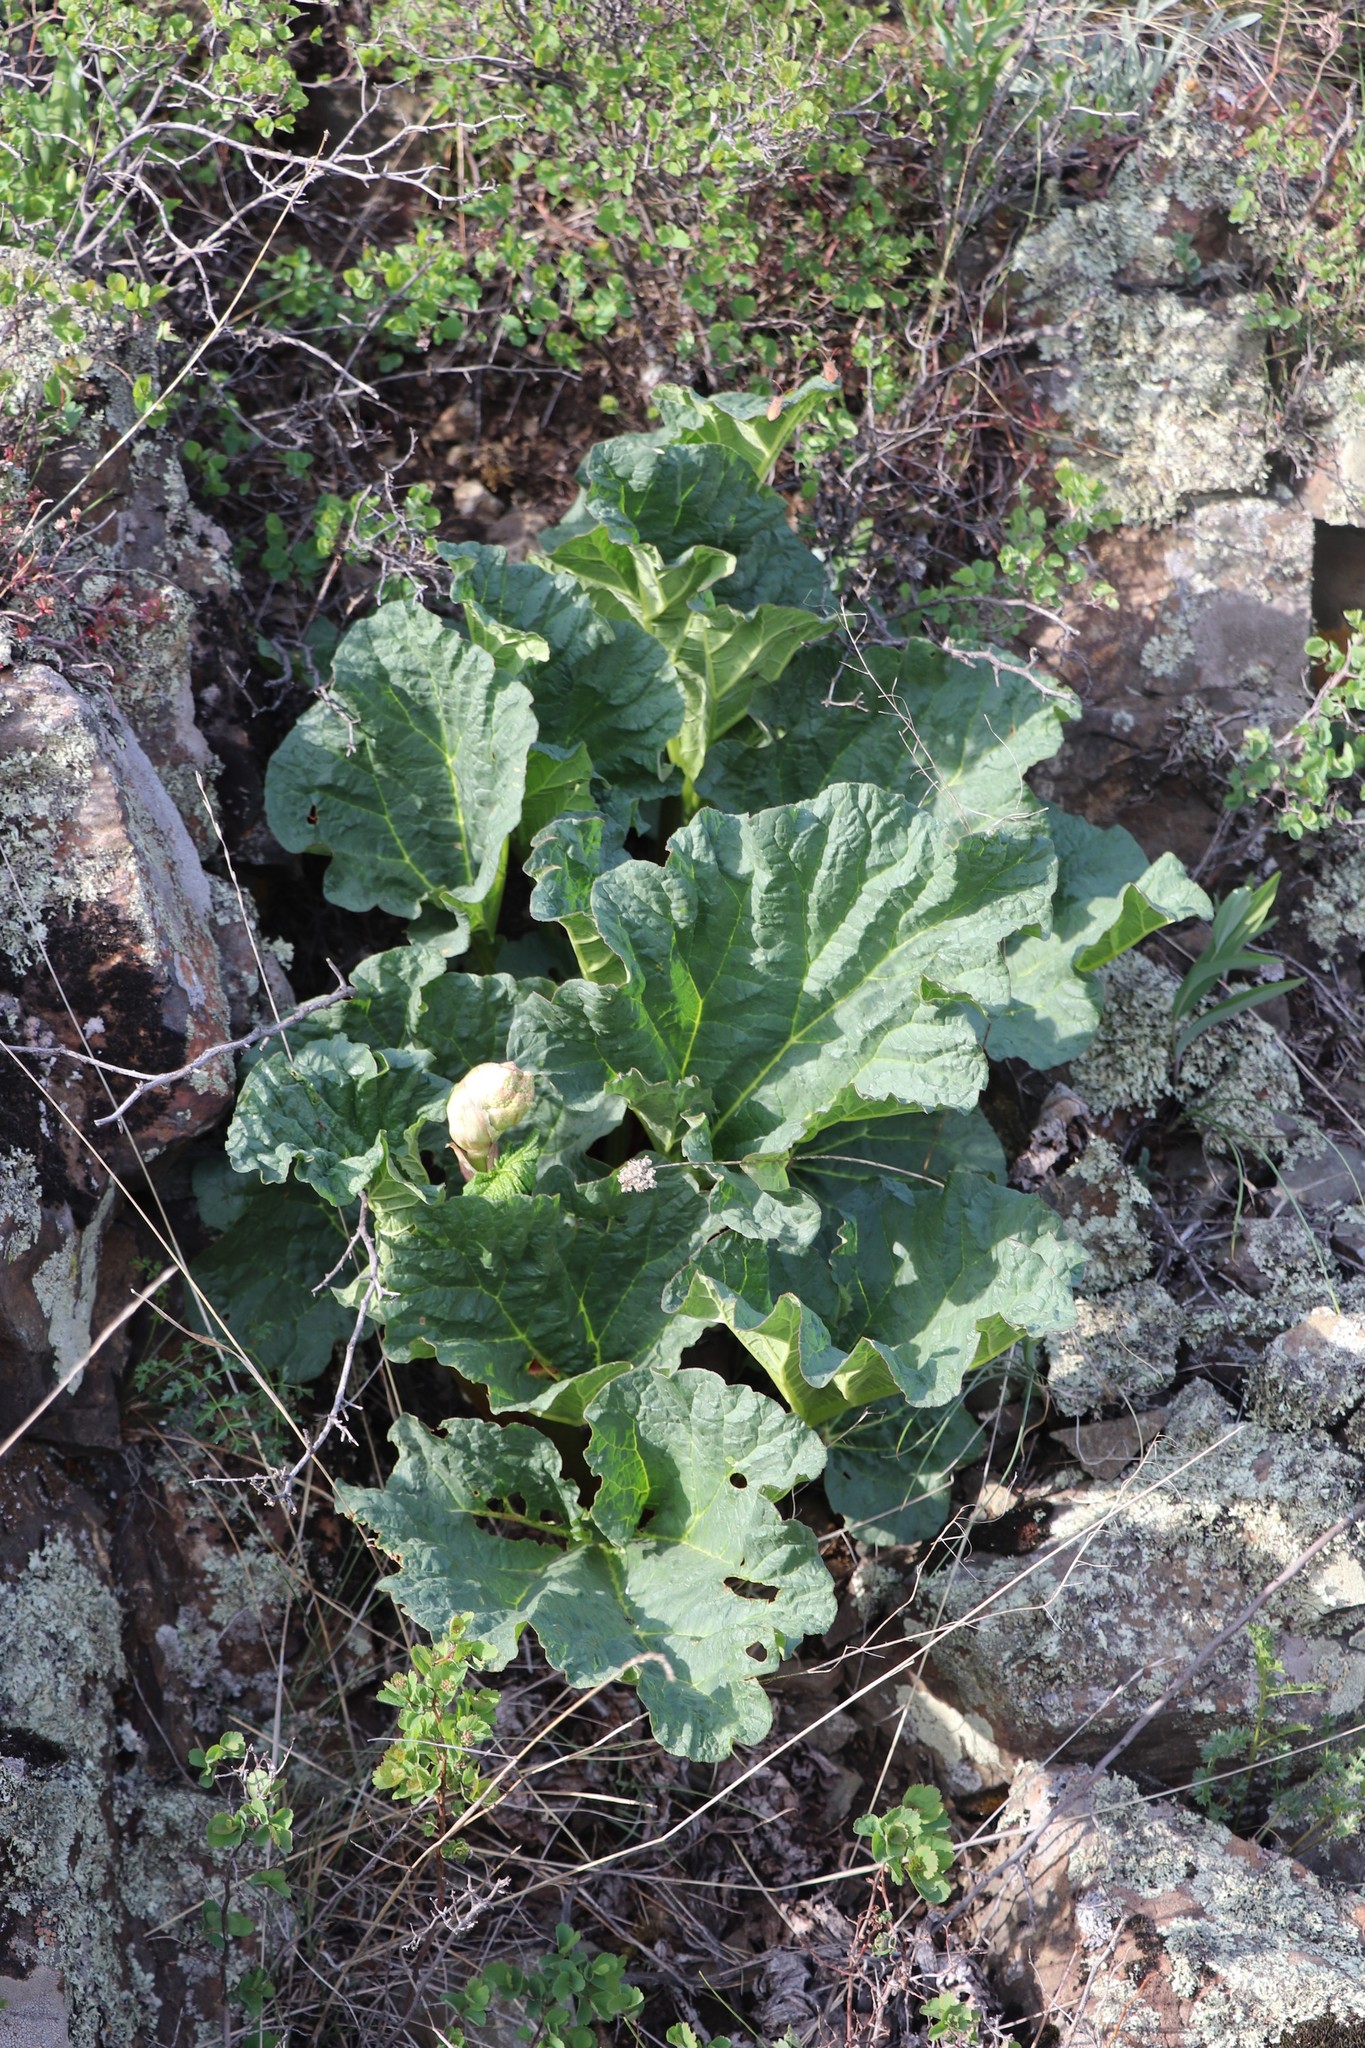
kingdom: Plantae
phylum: Tracheophyta
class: Magnoliopsida
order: Caryophyllales
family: Polygonaceae
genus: Rheum
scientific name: Rheum compactum
